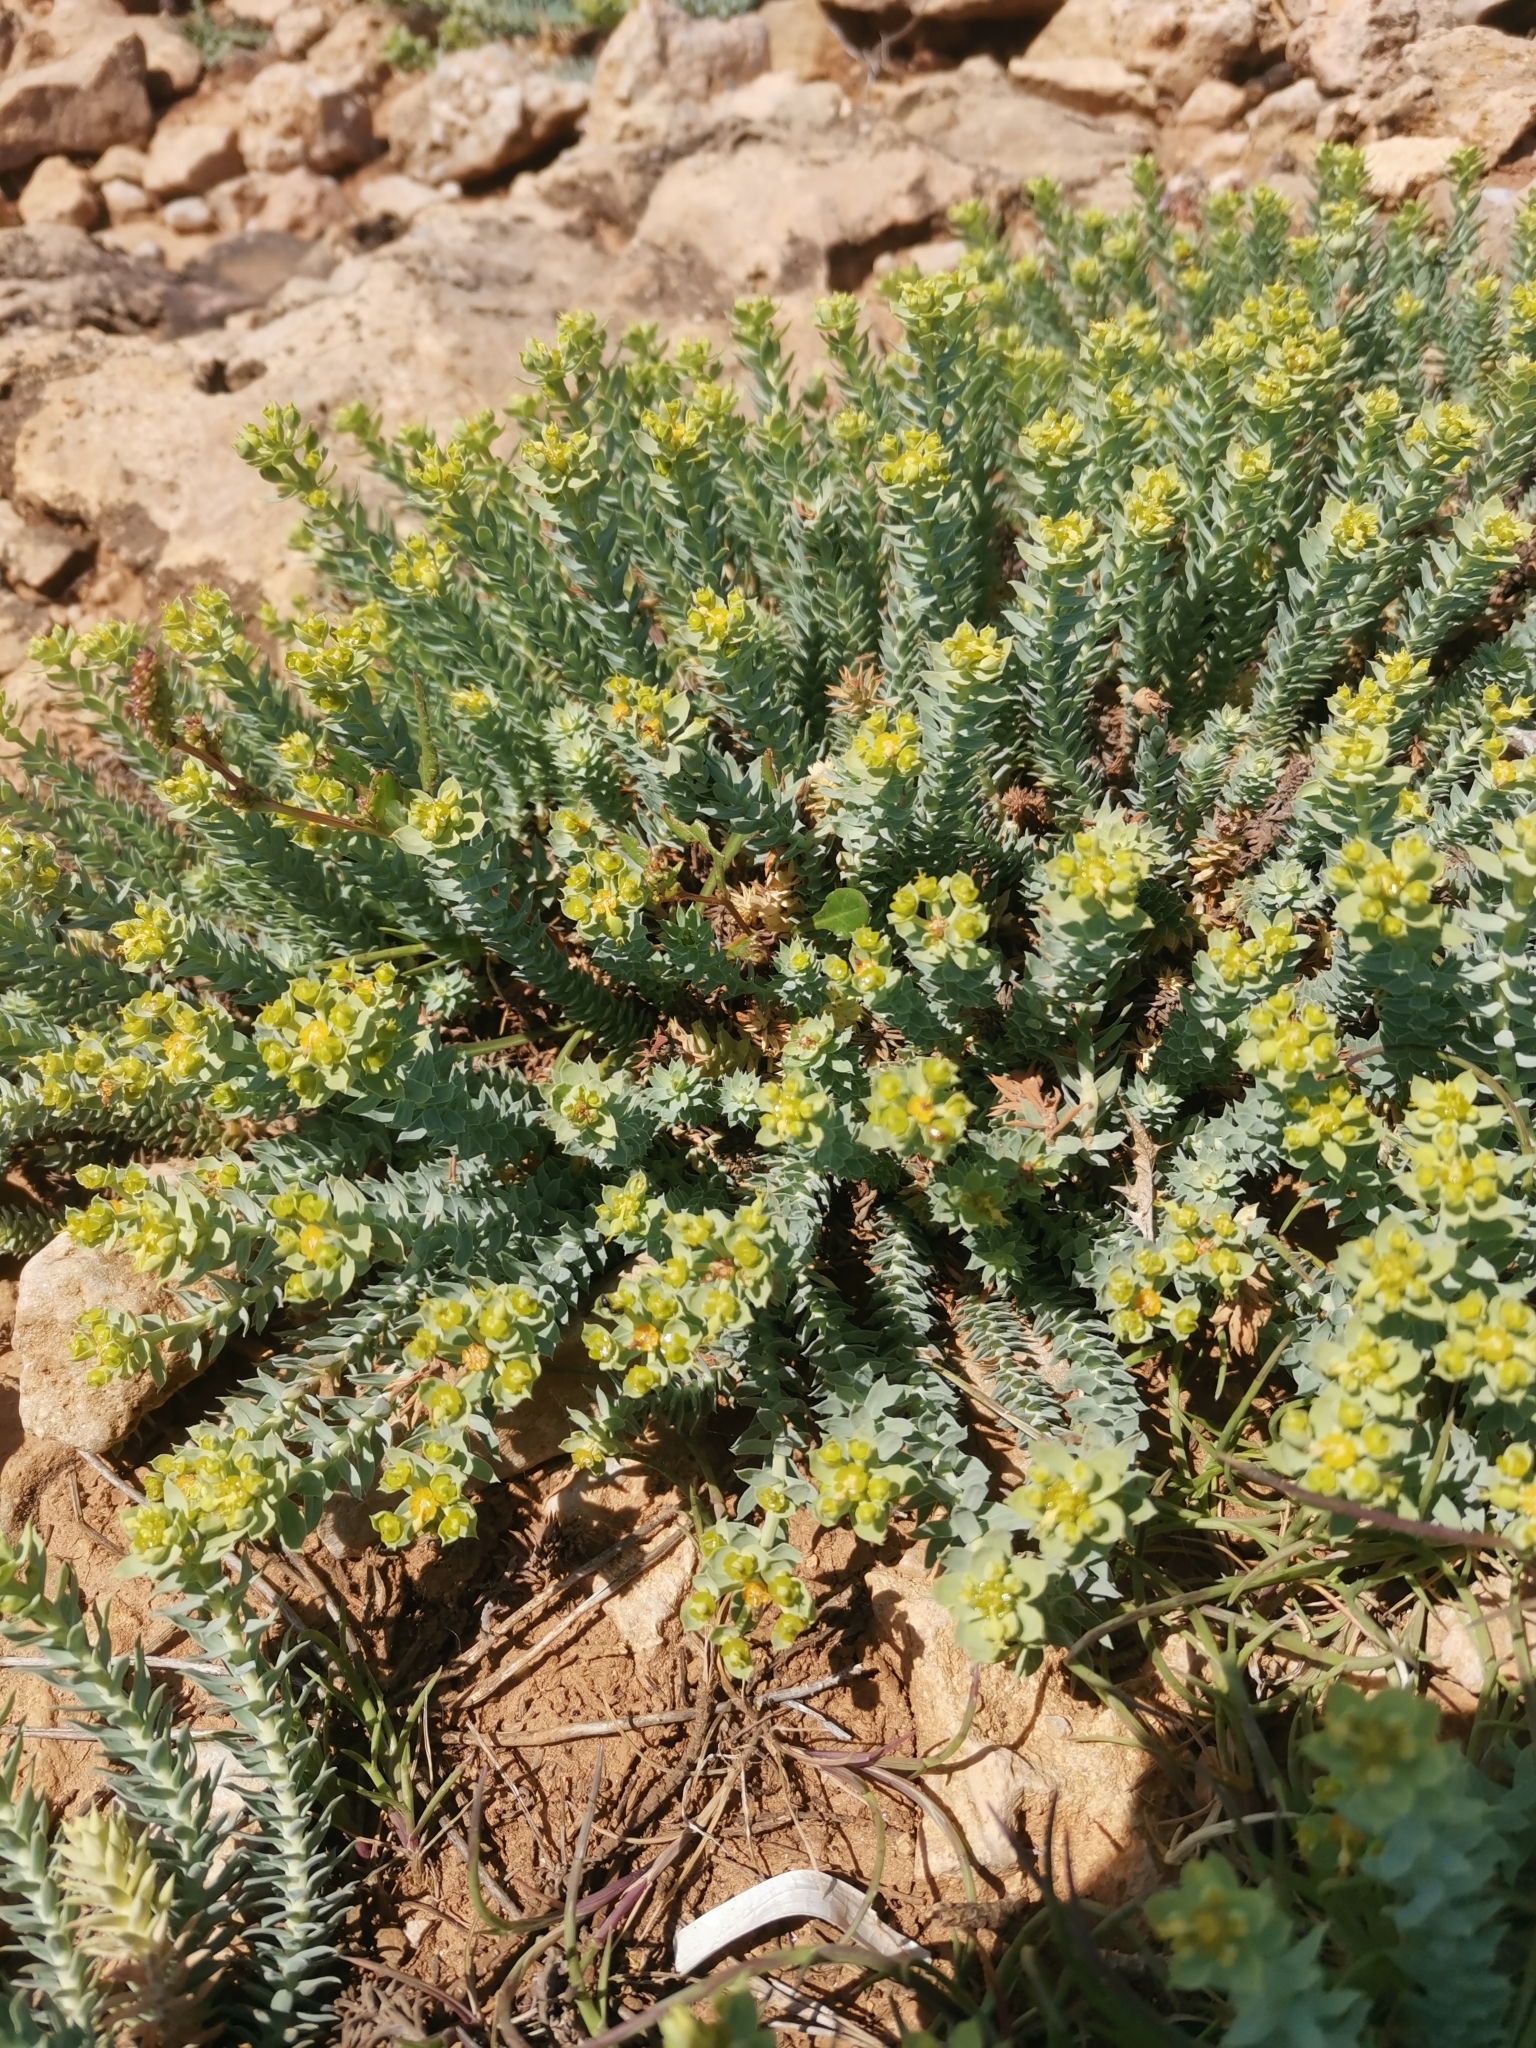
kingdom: Plantae
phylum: Tracheophyta
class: Magnoliopsida
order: Malpighiales
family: Euphorbiaceae
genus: Euphorbia
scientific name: Euphorbia pithyusa
